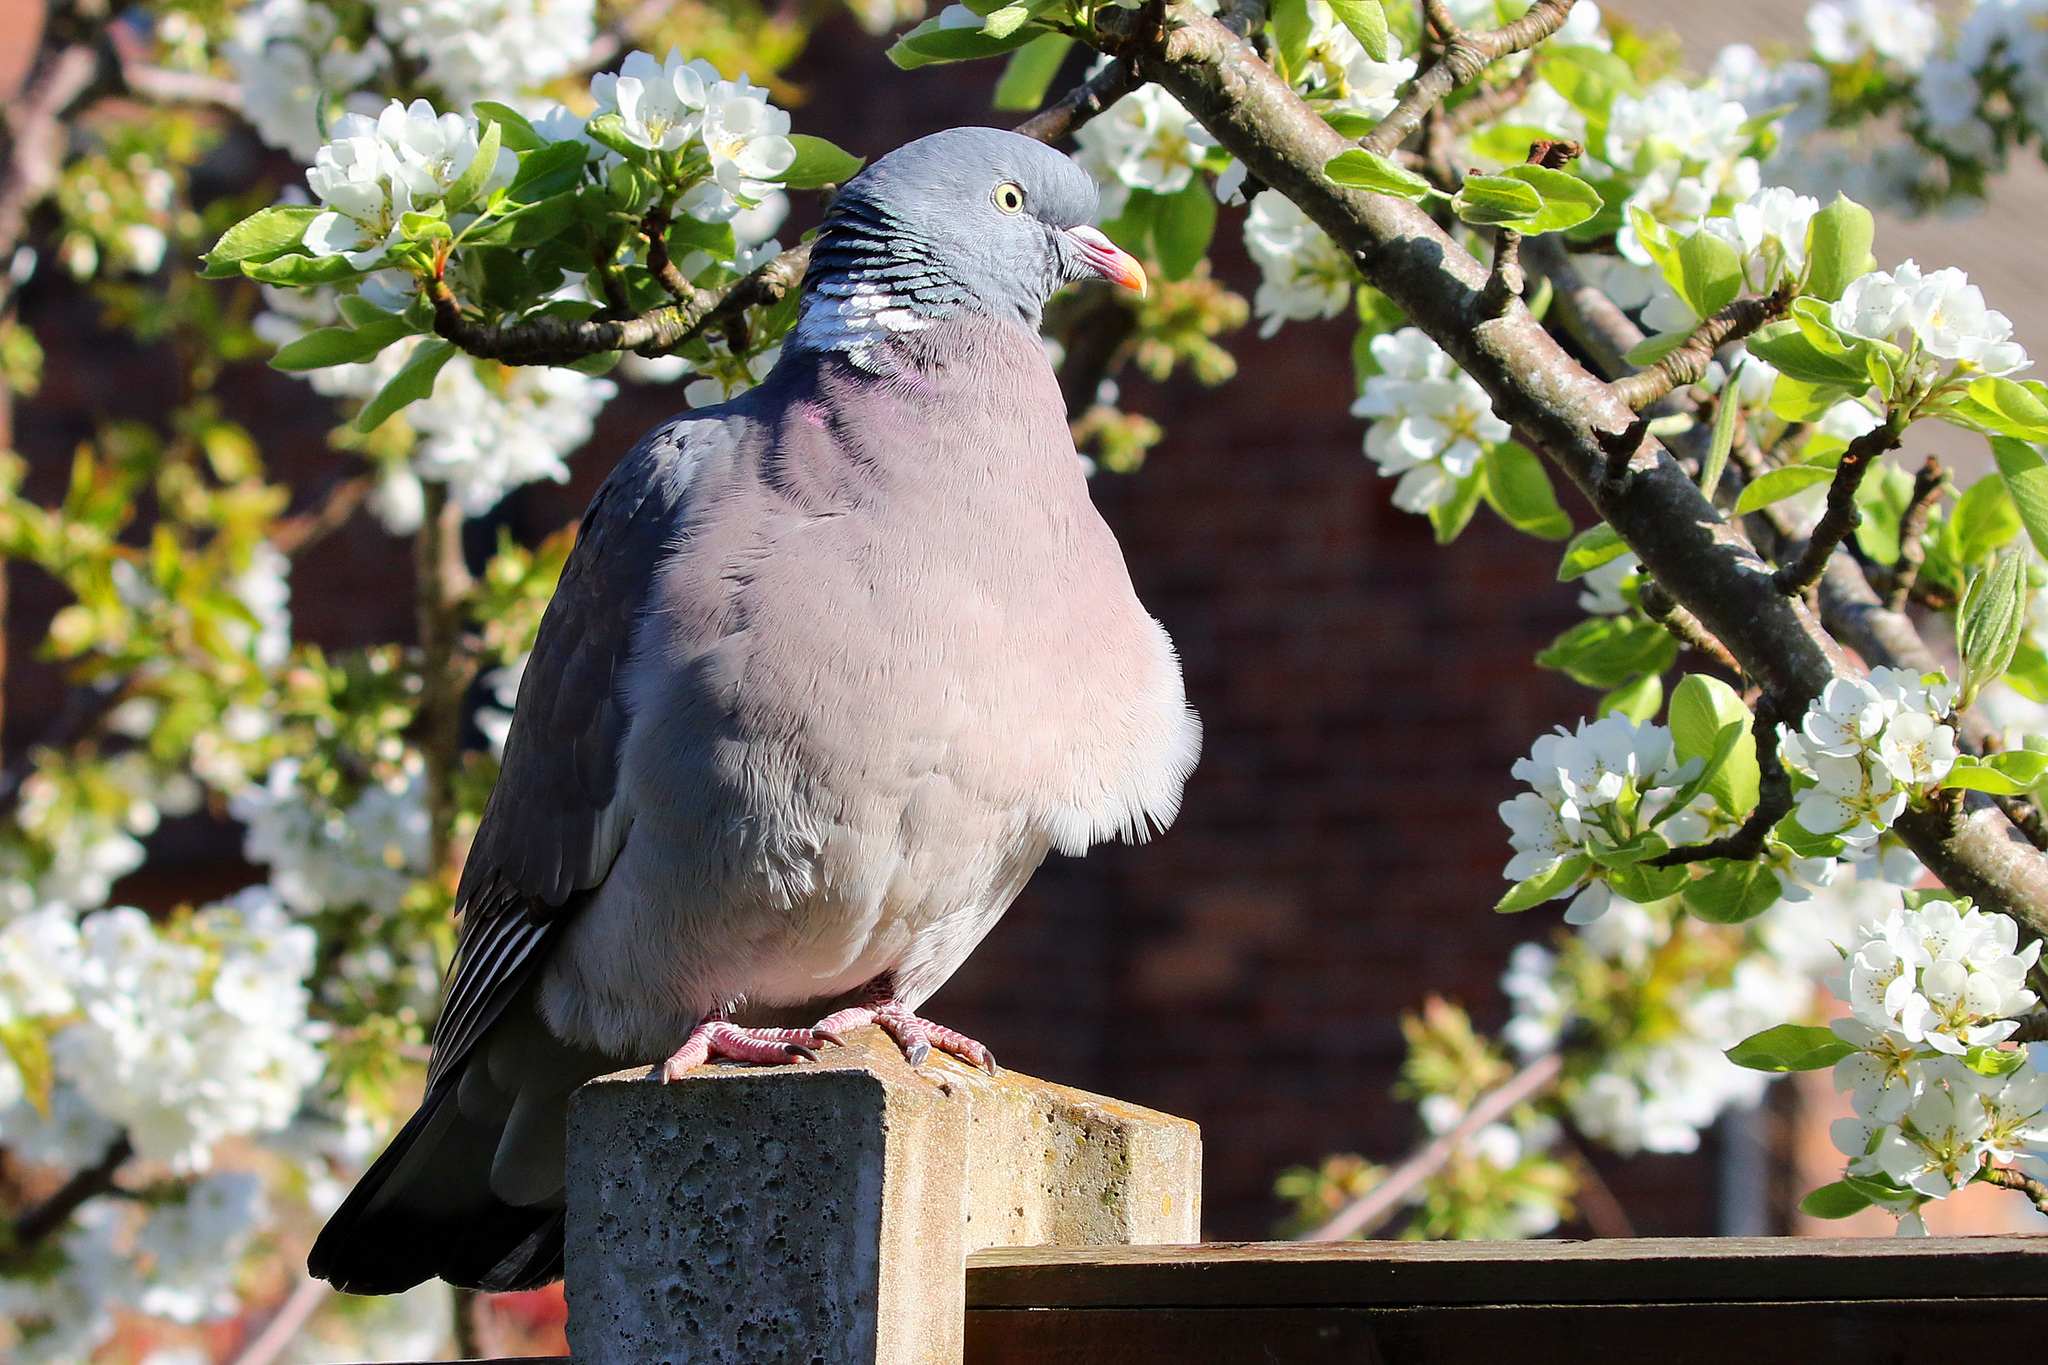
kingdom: Animalia
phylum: Chordata
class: Aves
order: Columbiformes
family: Columbidae
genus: Columba
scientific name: Columba palumbus
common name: Common wood pigeon
